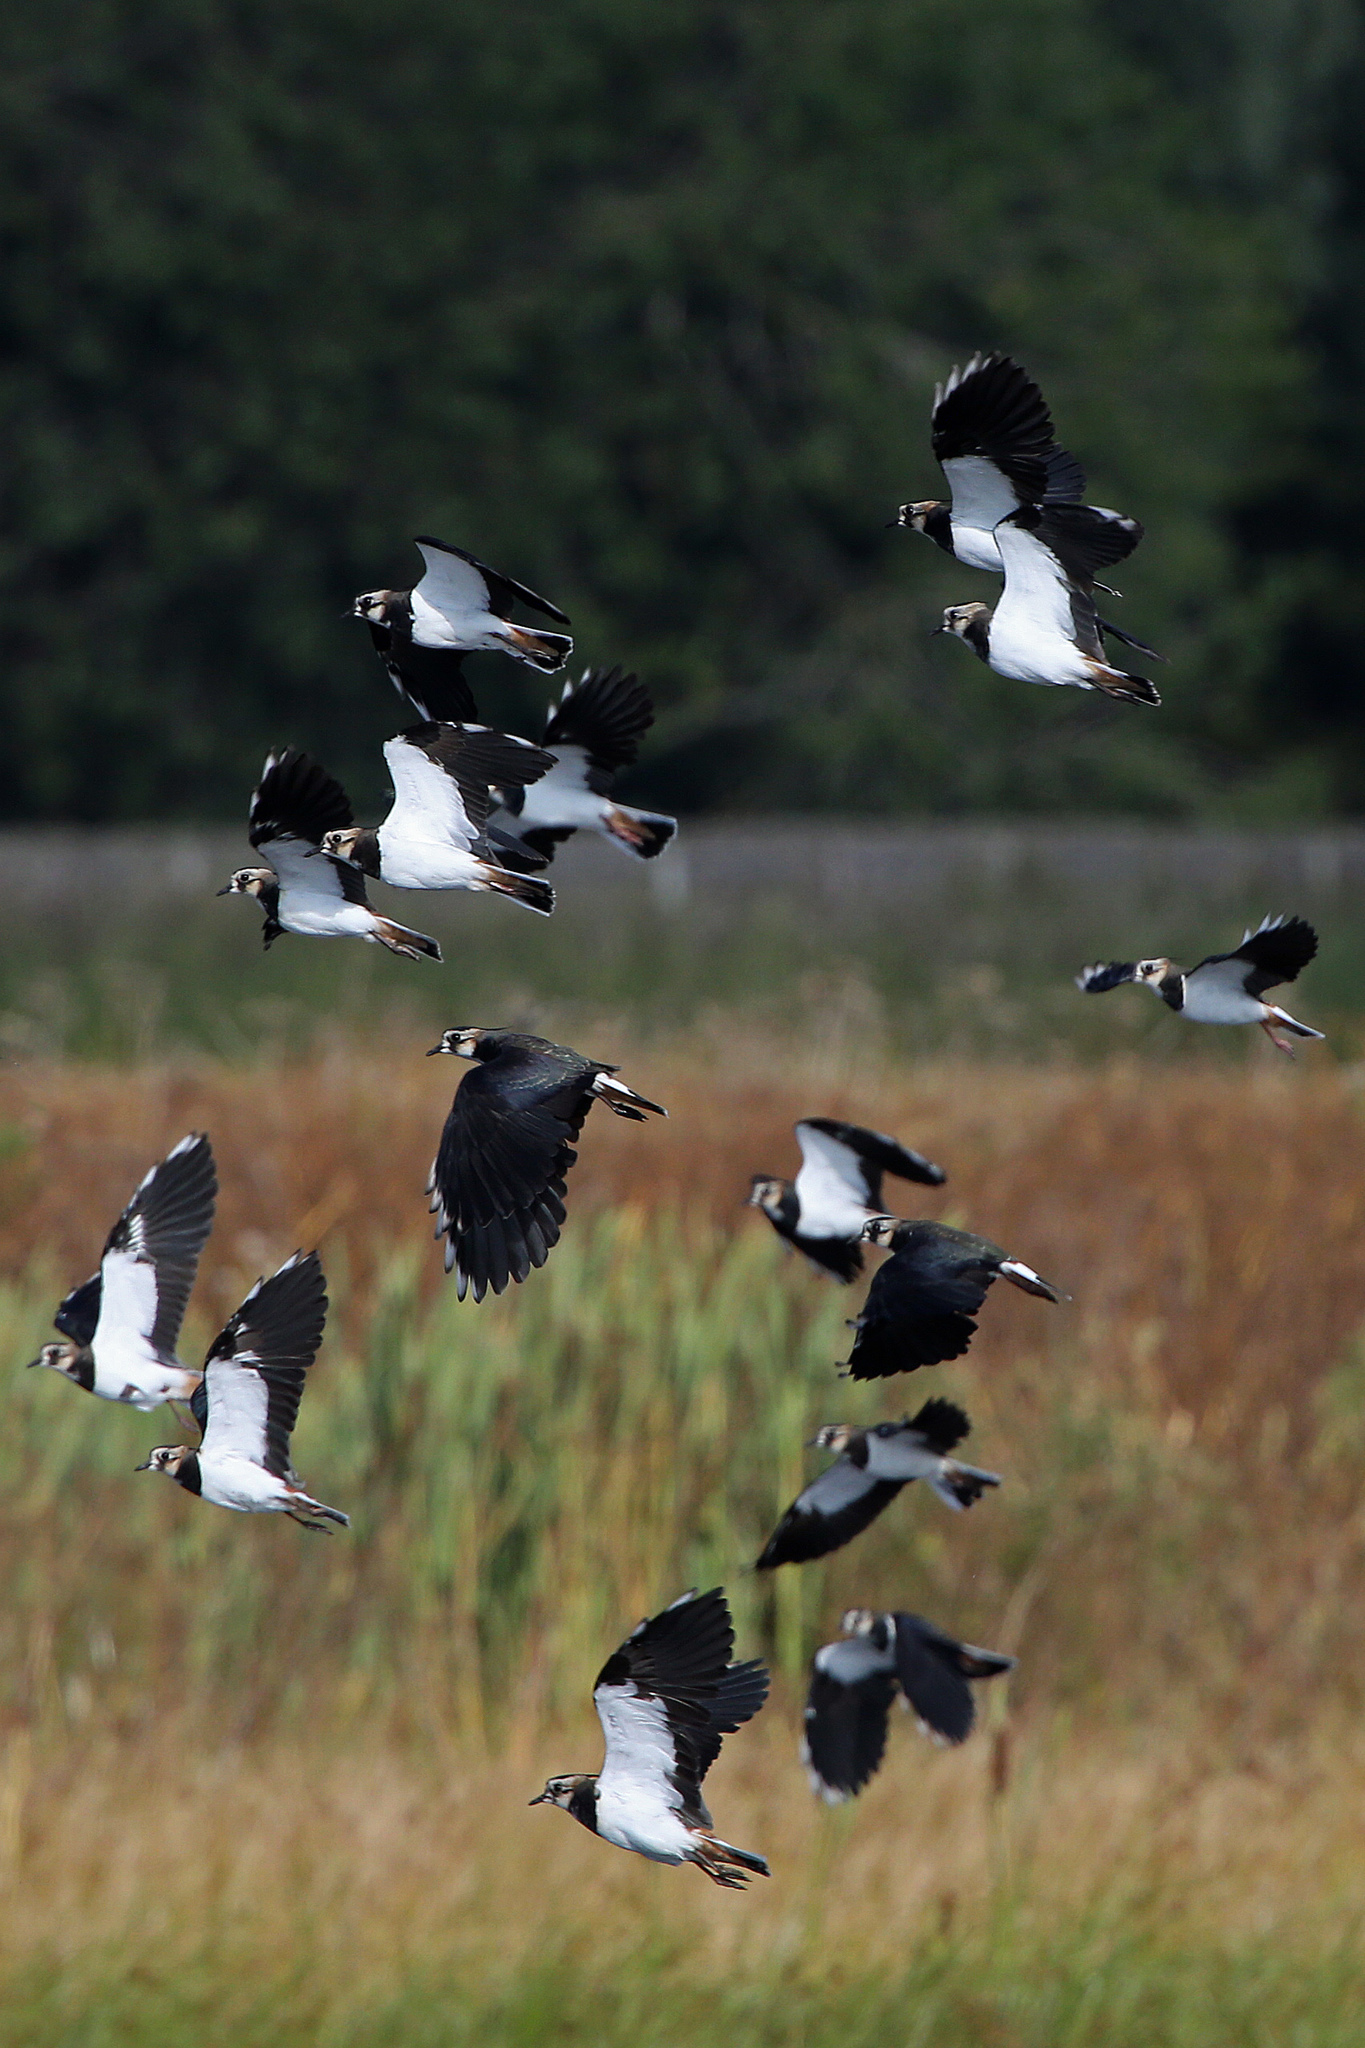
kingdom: Animalia
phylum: Chordata
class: Aves
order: Charadriiformes
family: Charadriidae
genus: Vanellus
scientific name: Vanellus vanellus
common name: Northern lapwing
